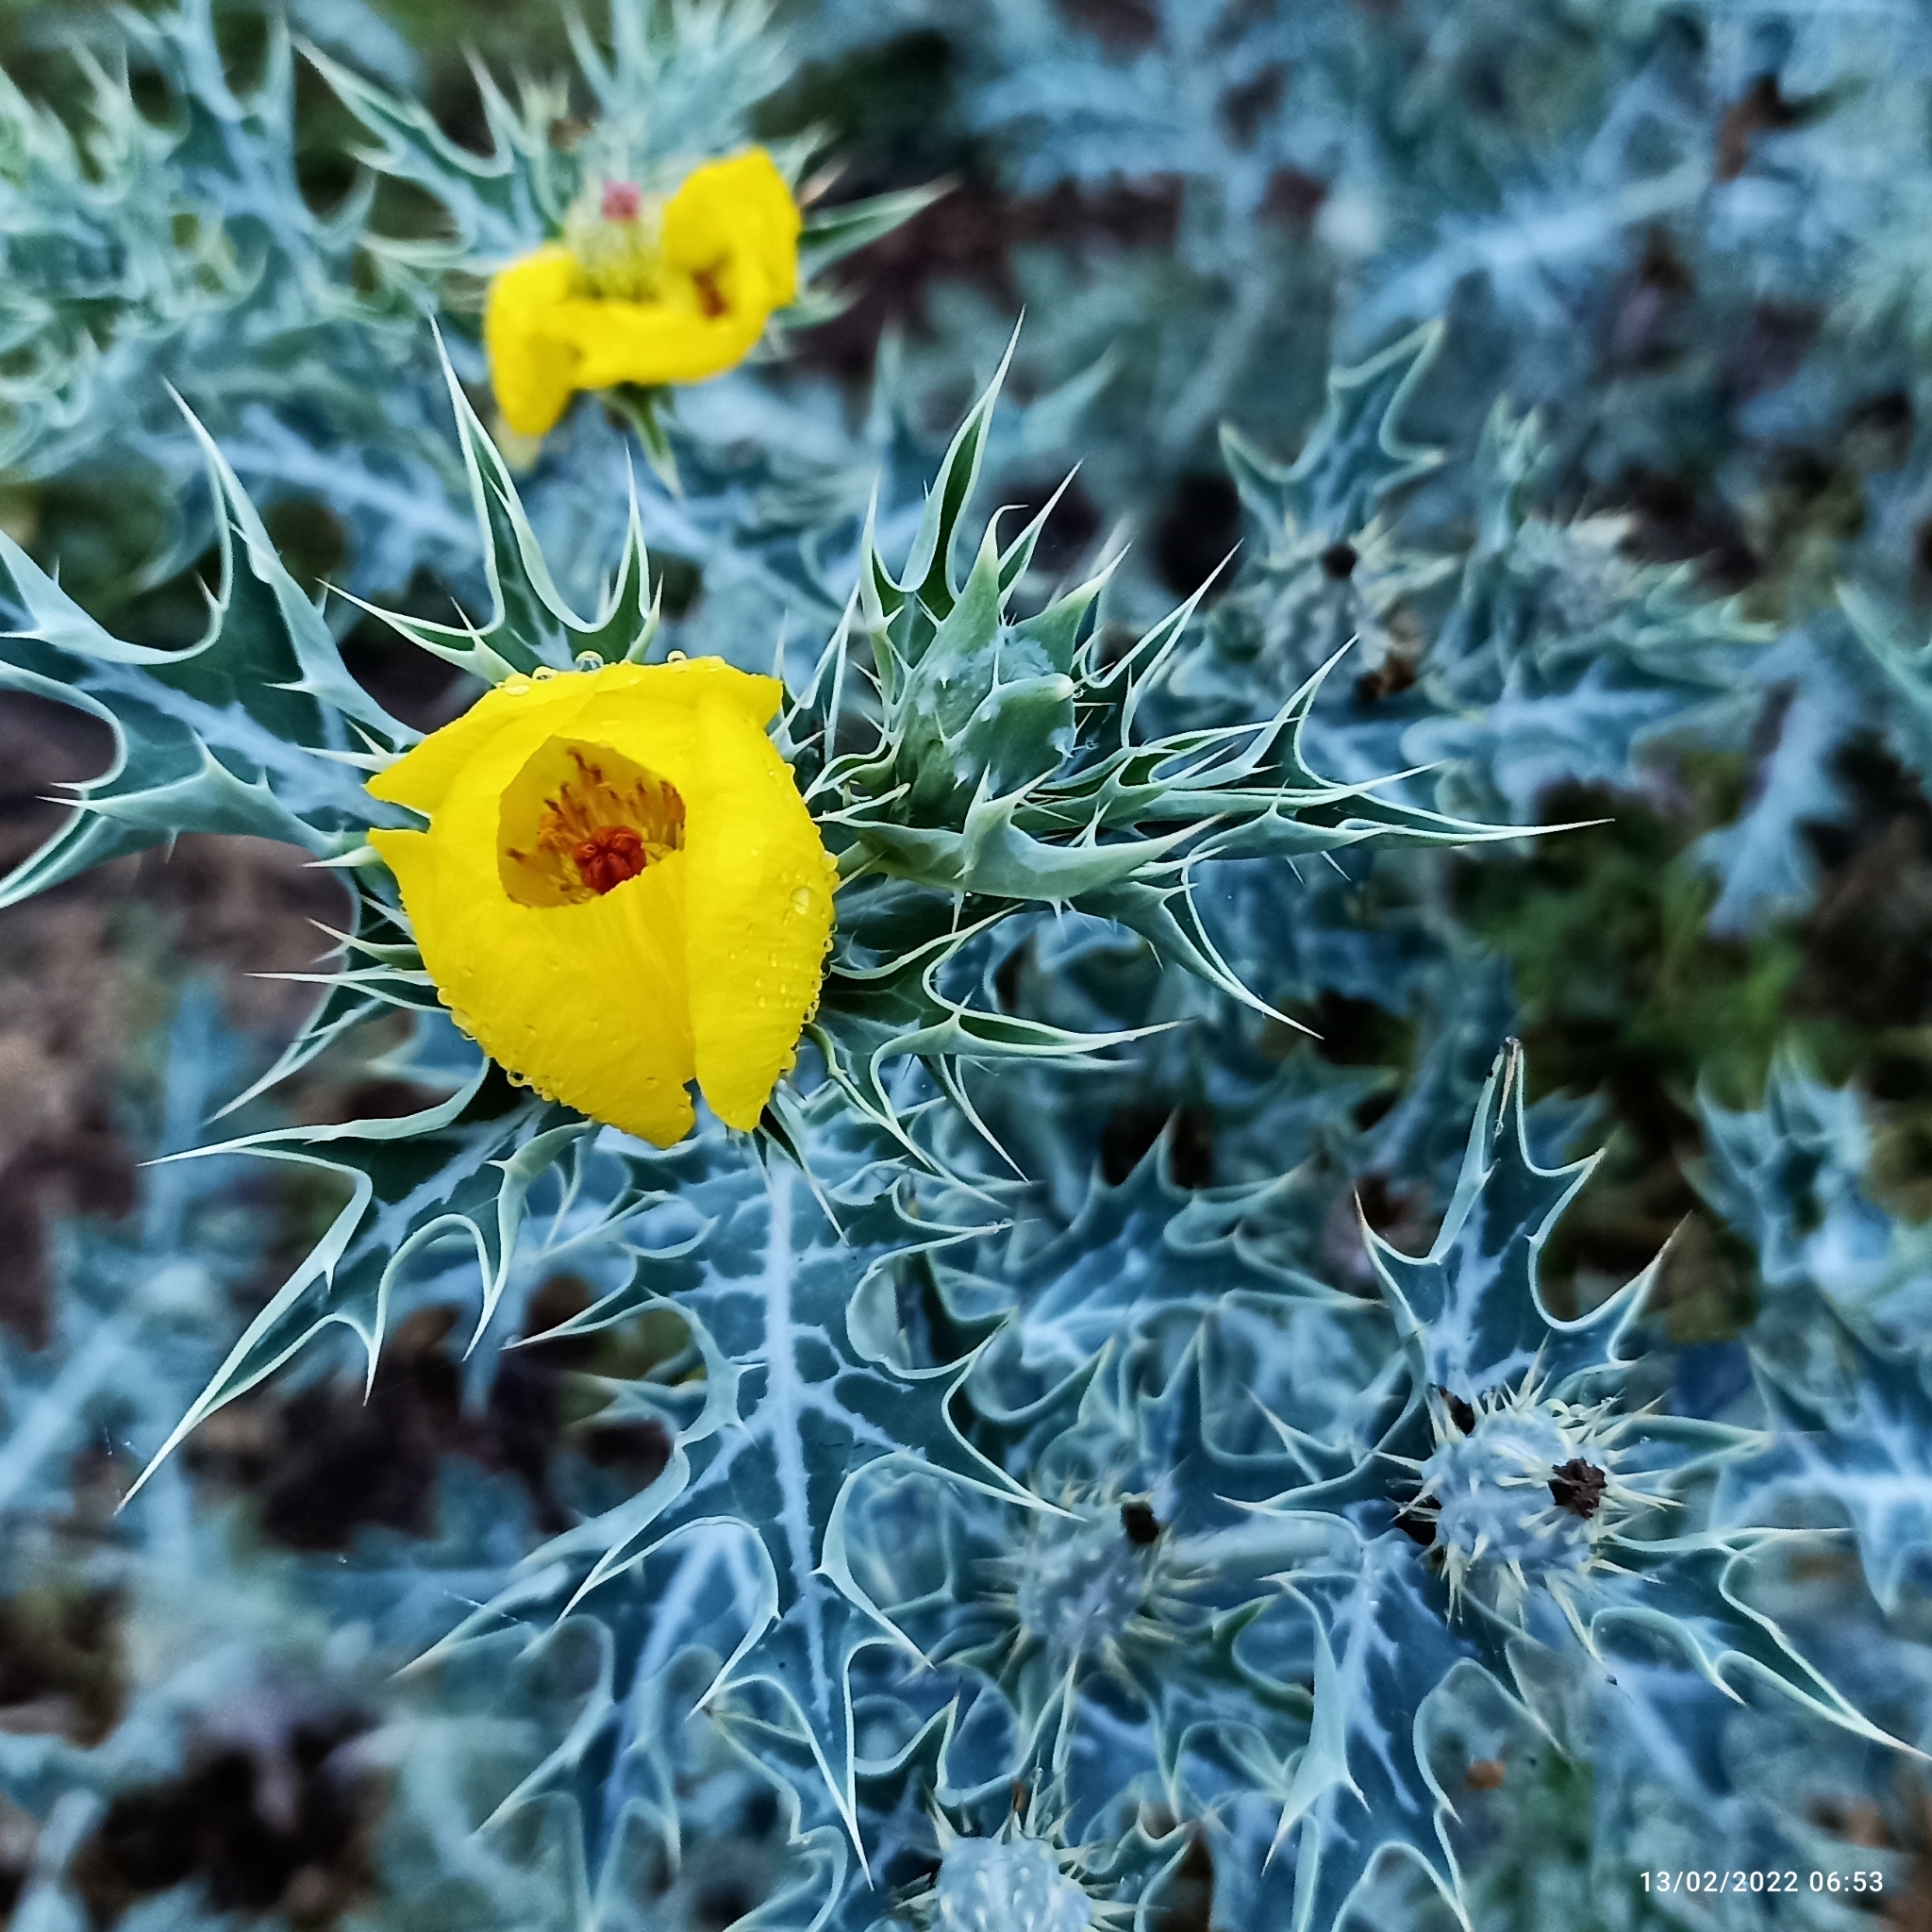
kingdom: Plantae
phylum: Tracheophyta
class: Magnoliopsida
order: Ranunculales
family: Papaveraceae
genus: Argemone
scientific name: Argemone mexicana
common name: Mexican poppy
